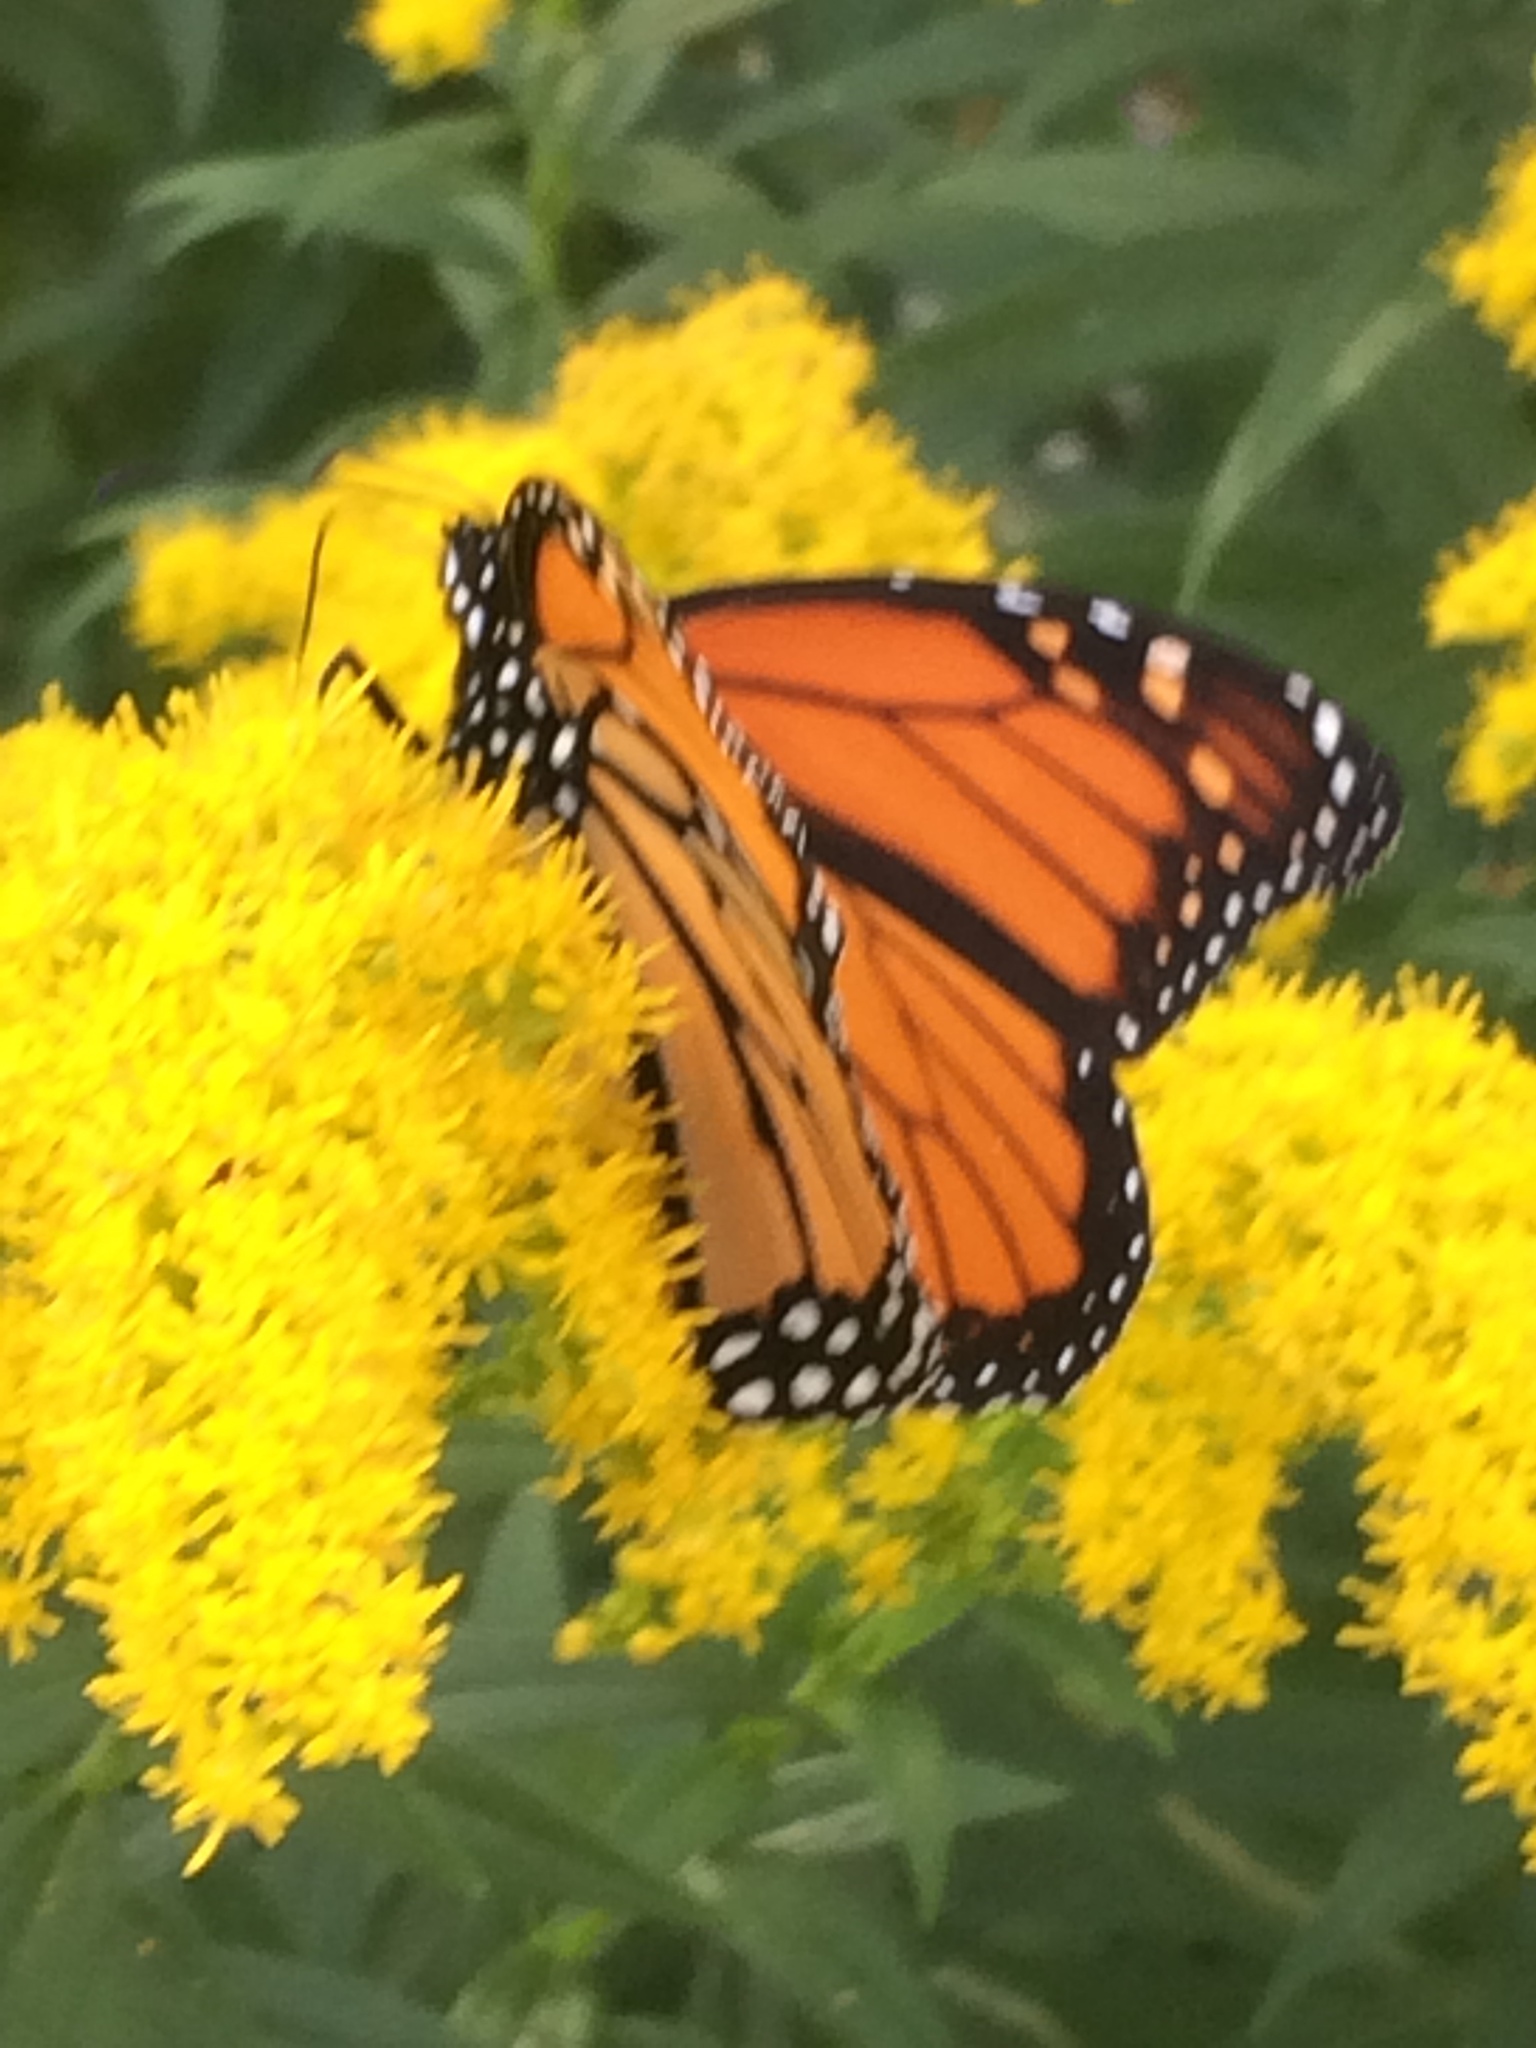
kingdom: Animalia
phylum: Arthropoda
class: Insecta
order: Lepidoptera
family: Nymphalidae
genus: Danaus
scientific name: Danaus plexippus
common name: Monarch
